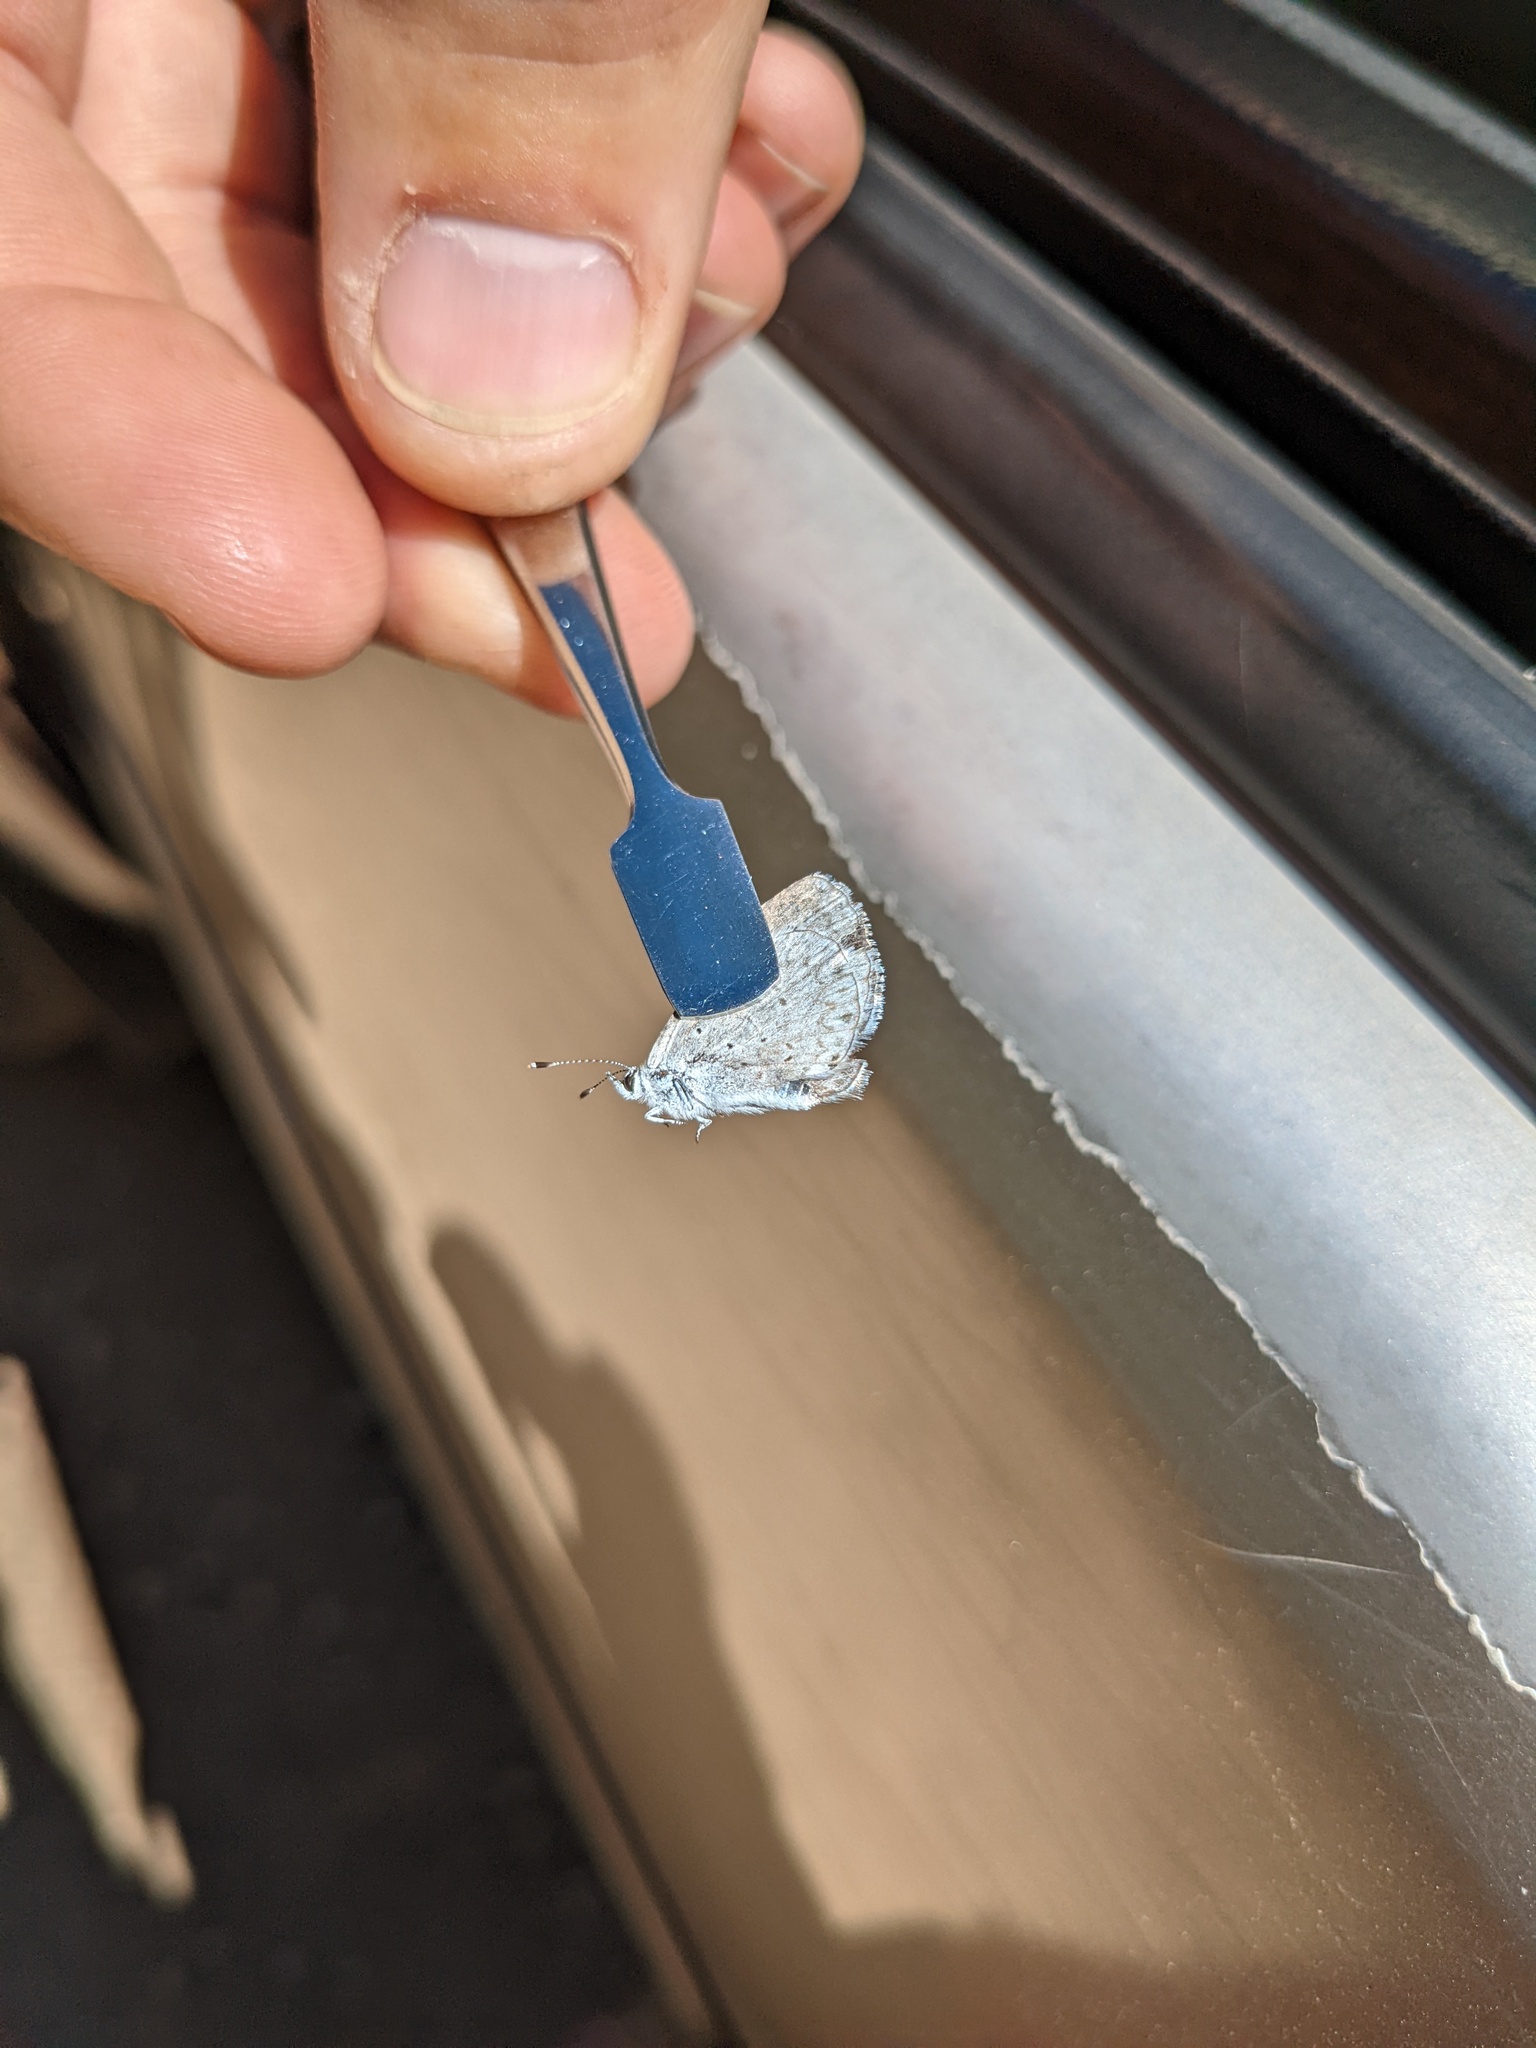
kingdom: Animalia
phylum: Arthropoda
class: Insecta
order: Lepidoptera
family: Lycaenidae
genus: Celastrina
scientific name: Celastrina ladon
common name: Spring azure
